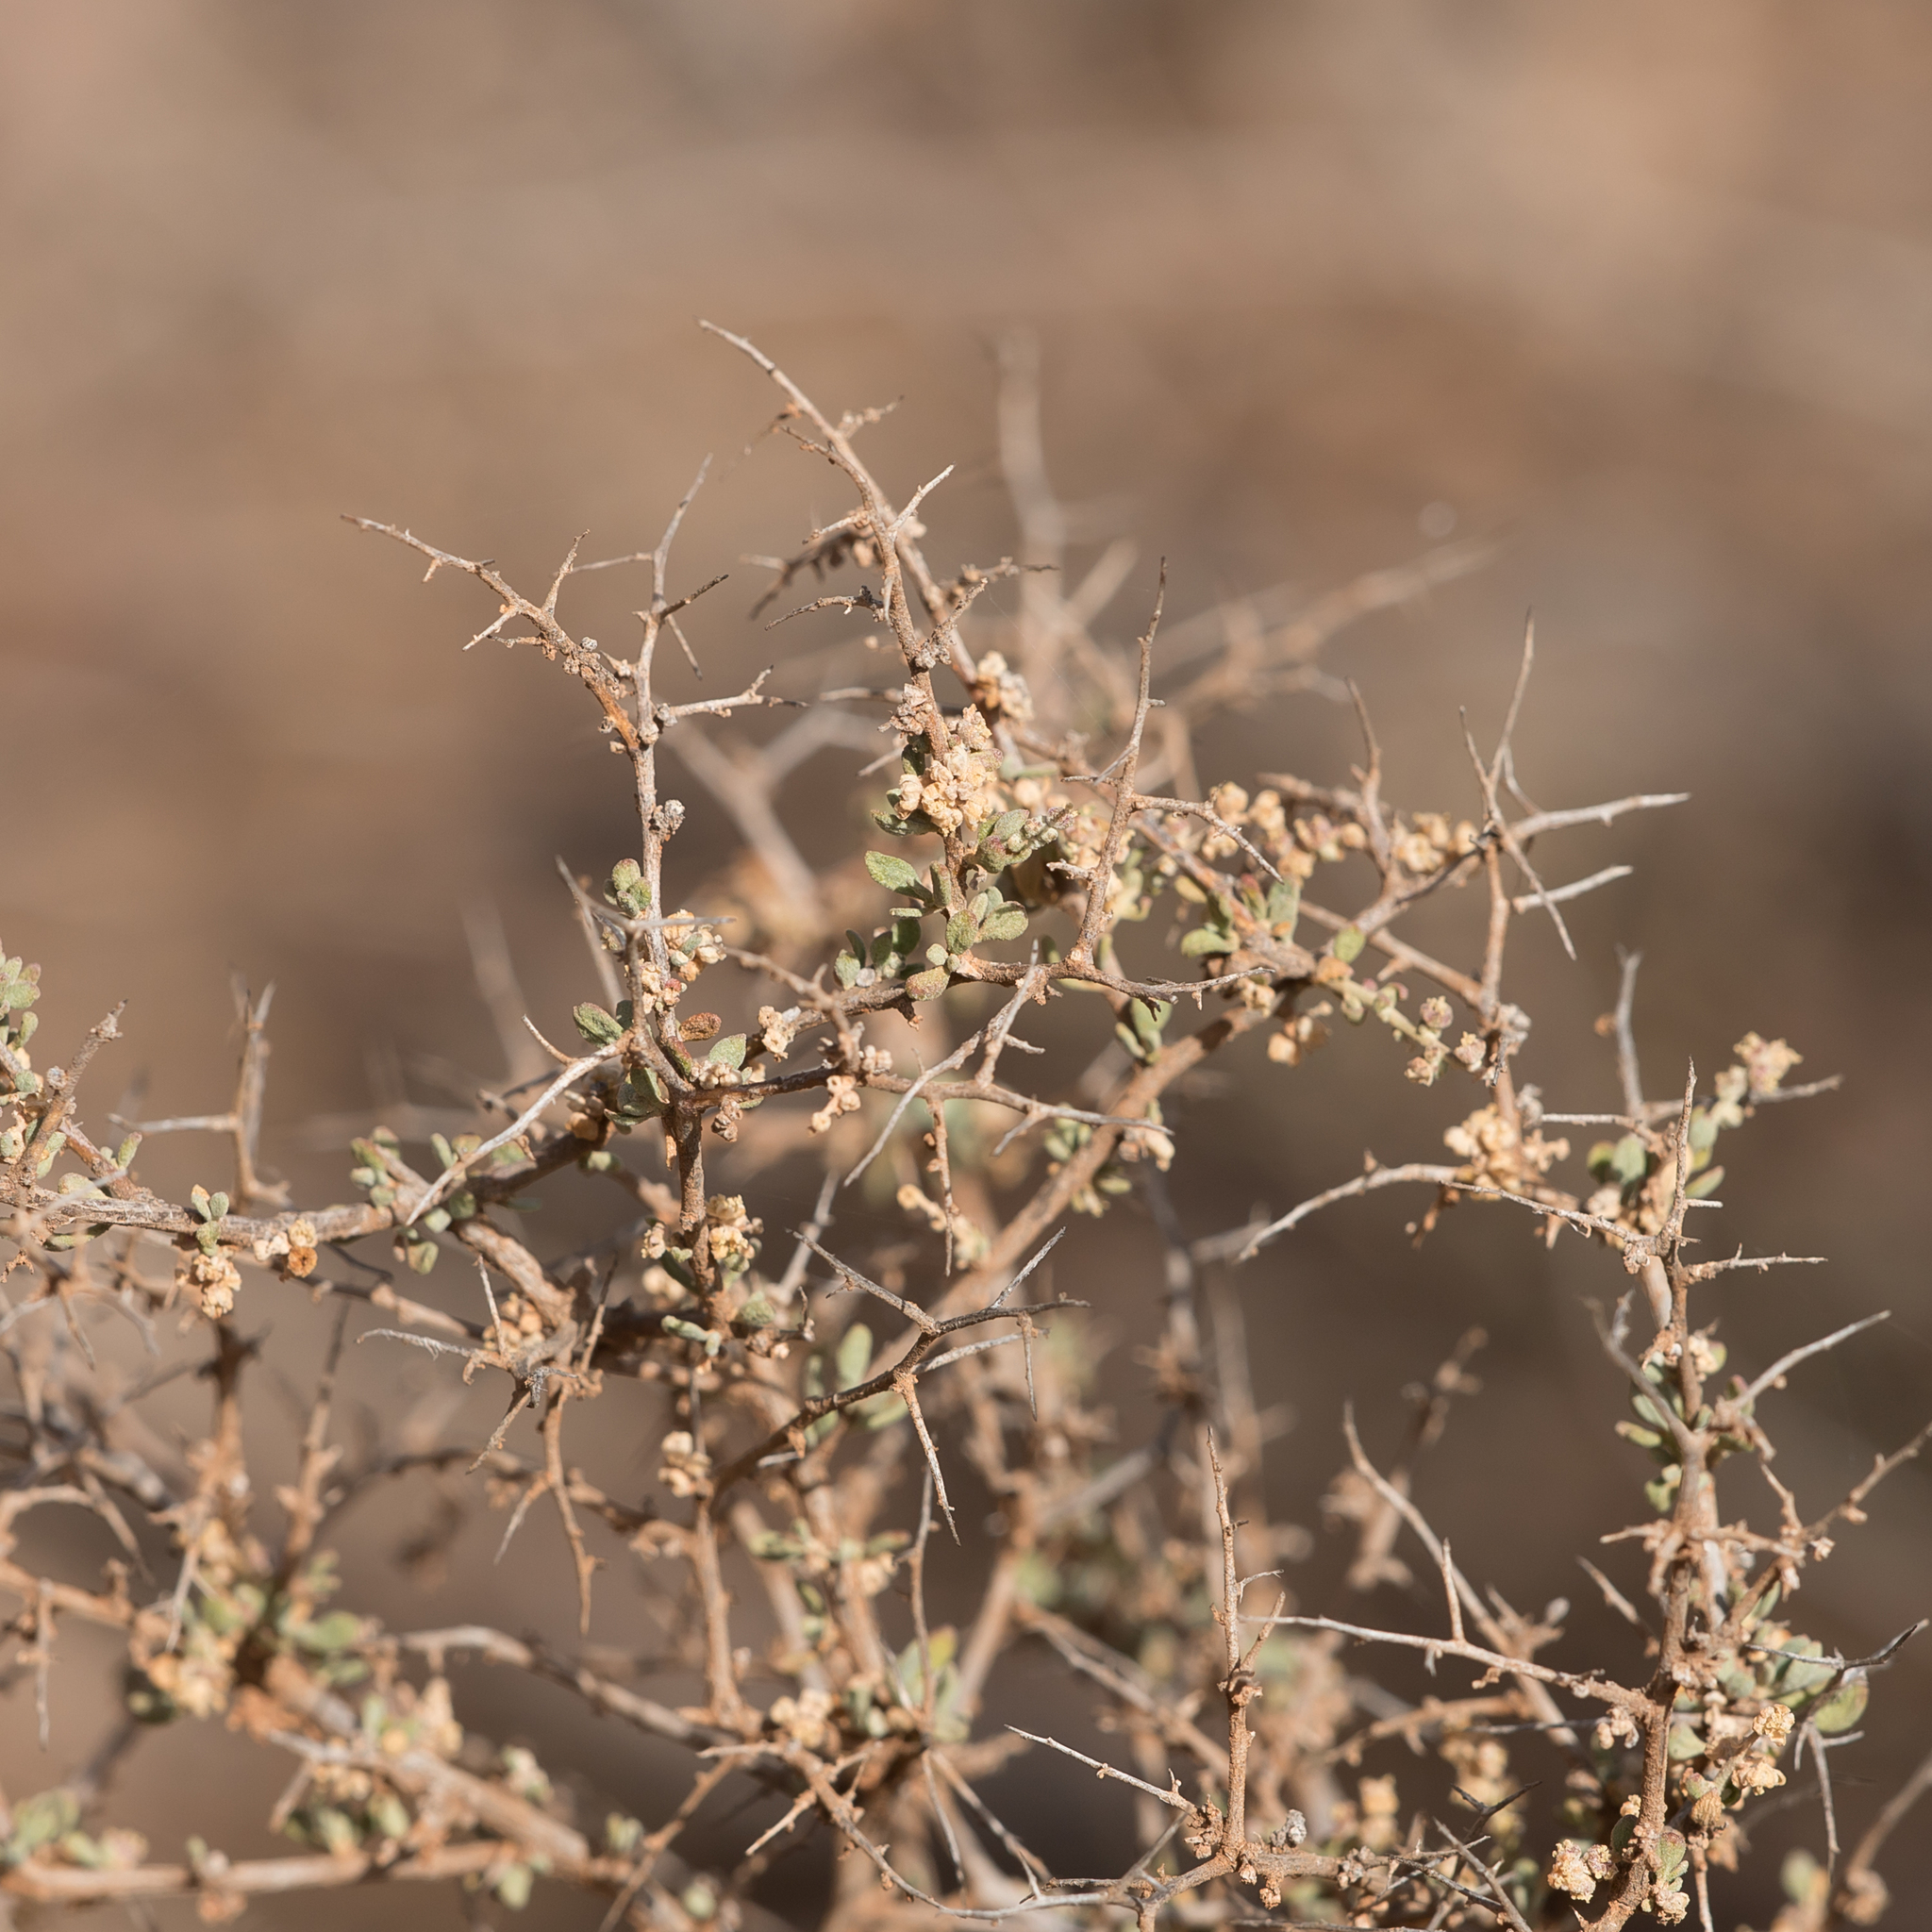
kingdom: Plantae
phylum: Tracheophyta
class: Magnoliopsida
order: Caryophyllales
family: Amaranthaceae
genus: Chenopodium
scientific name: Chenopodium ulicinum
